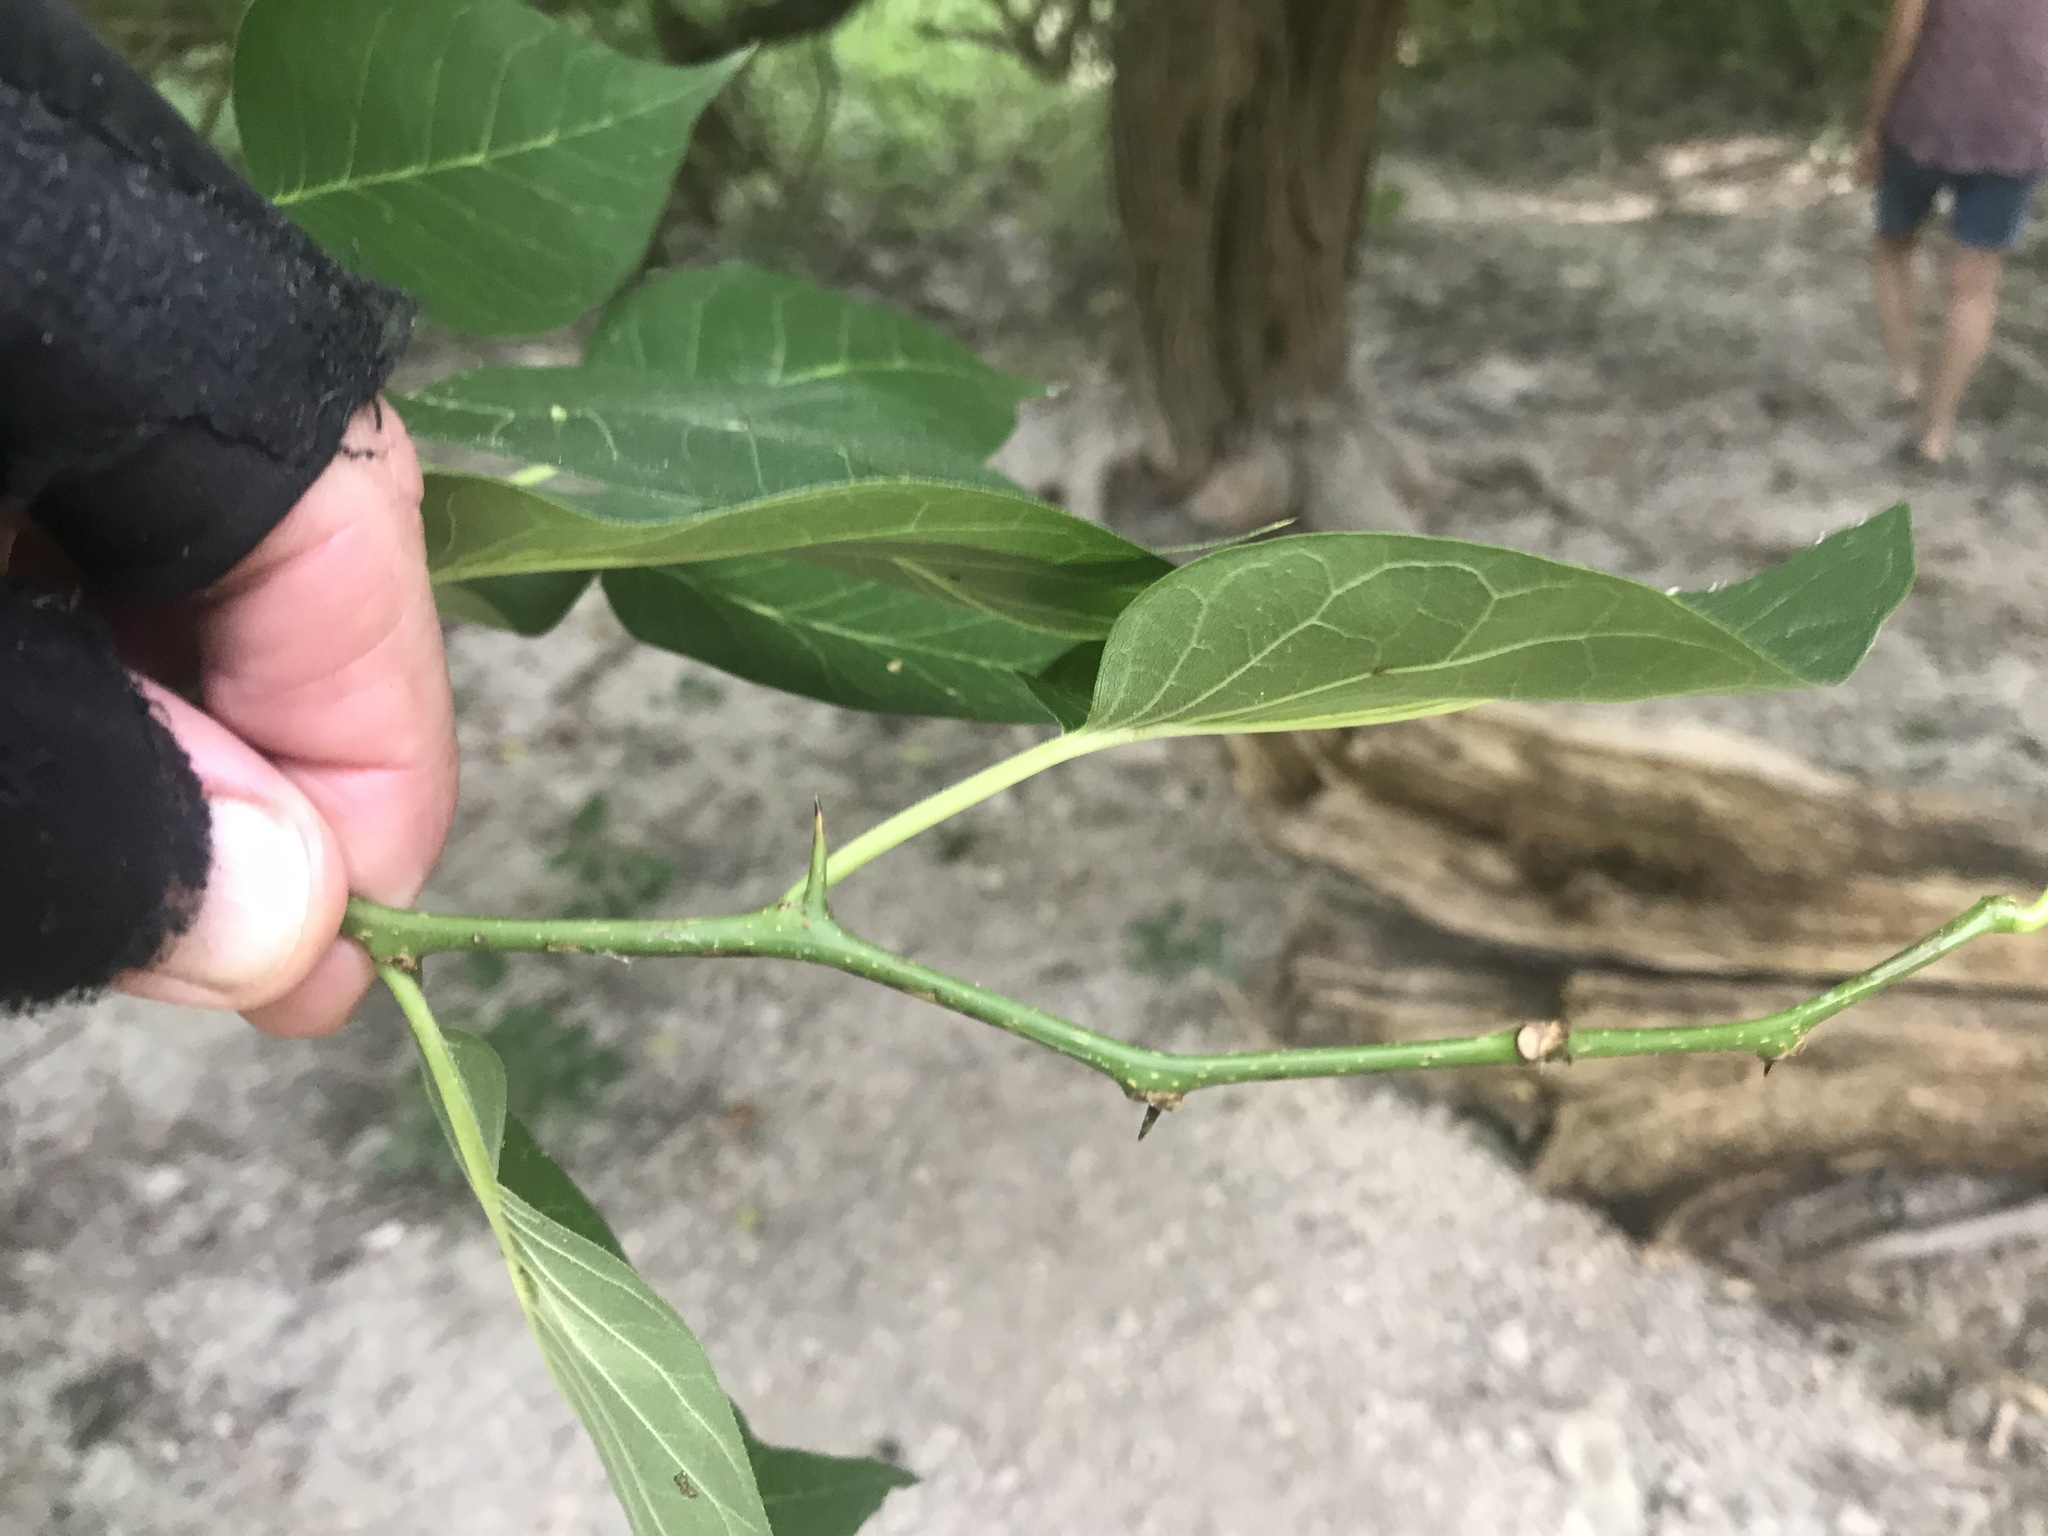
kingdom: Plantae
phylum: Tracheophyta
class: Magnoliopsida
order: Rosales
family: Moraceae
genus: Maclura
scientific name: Maclura pomifera
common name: Osage-orange
